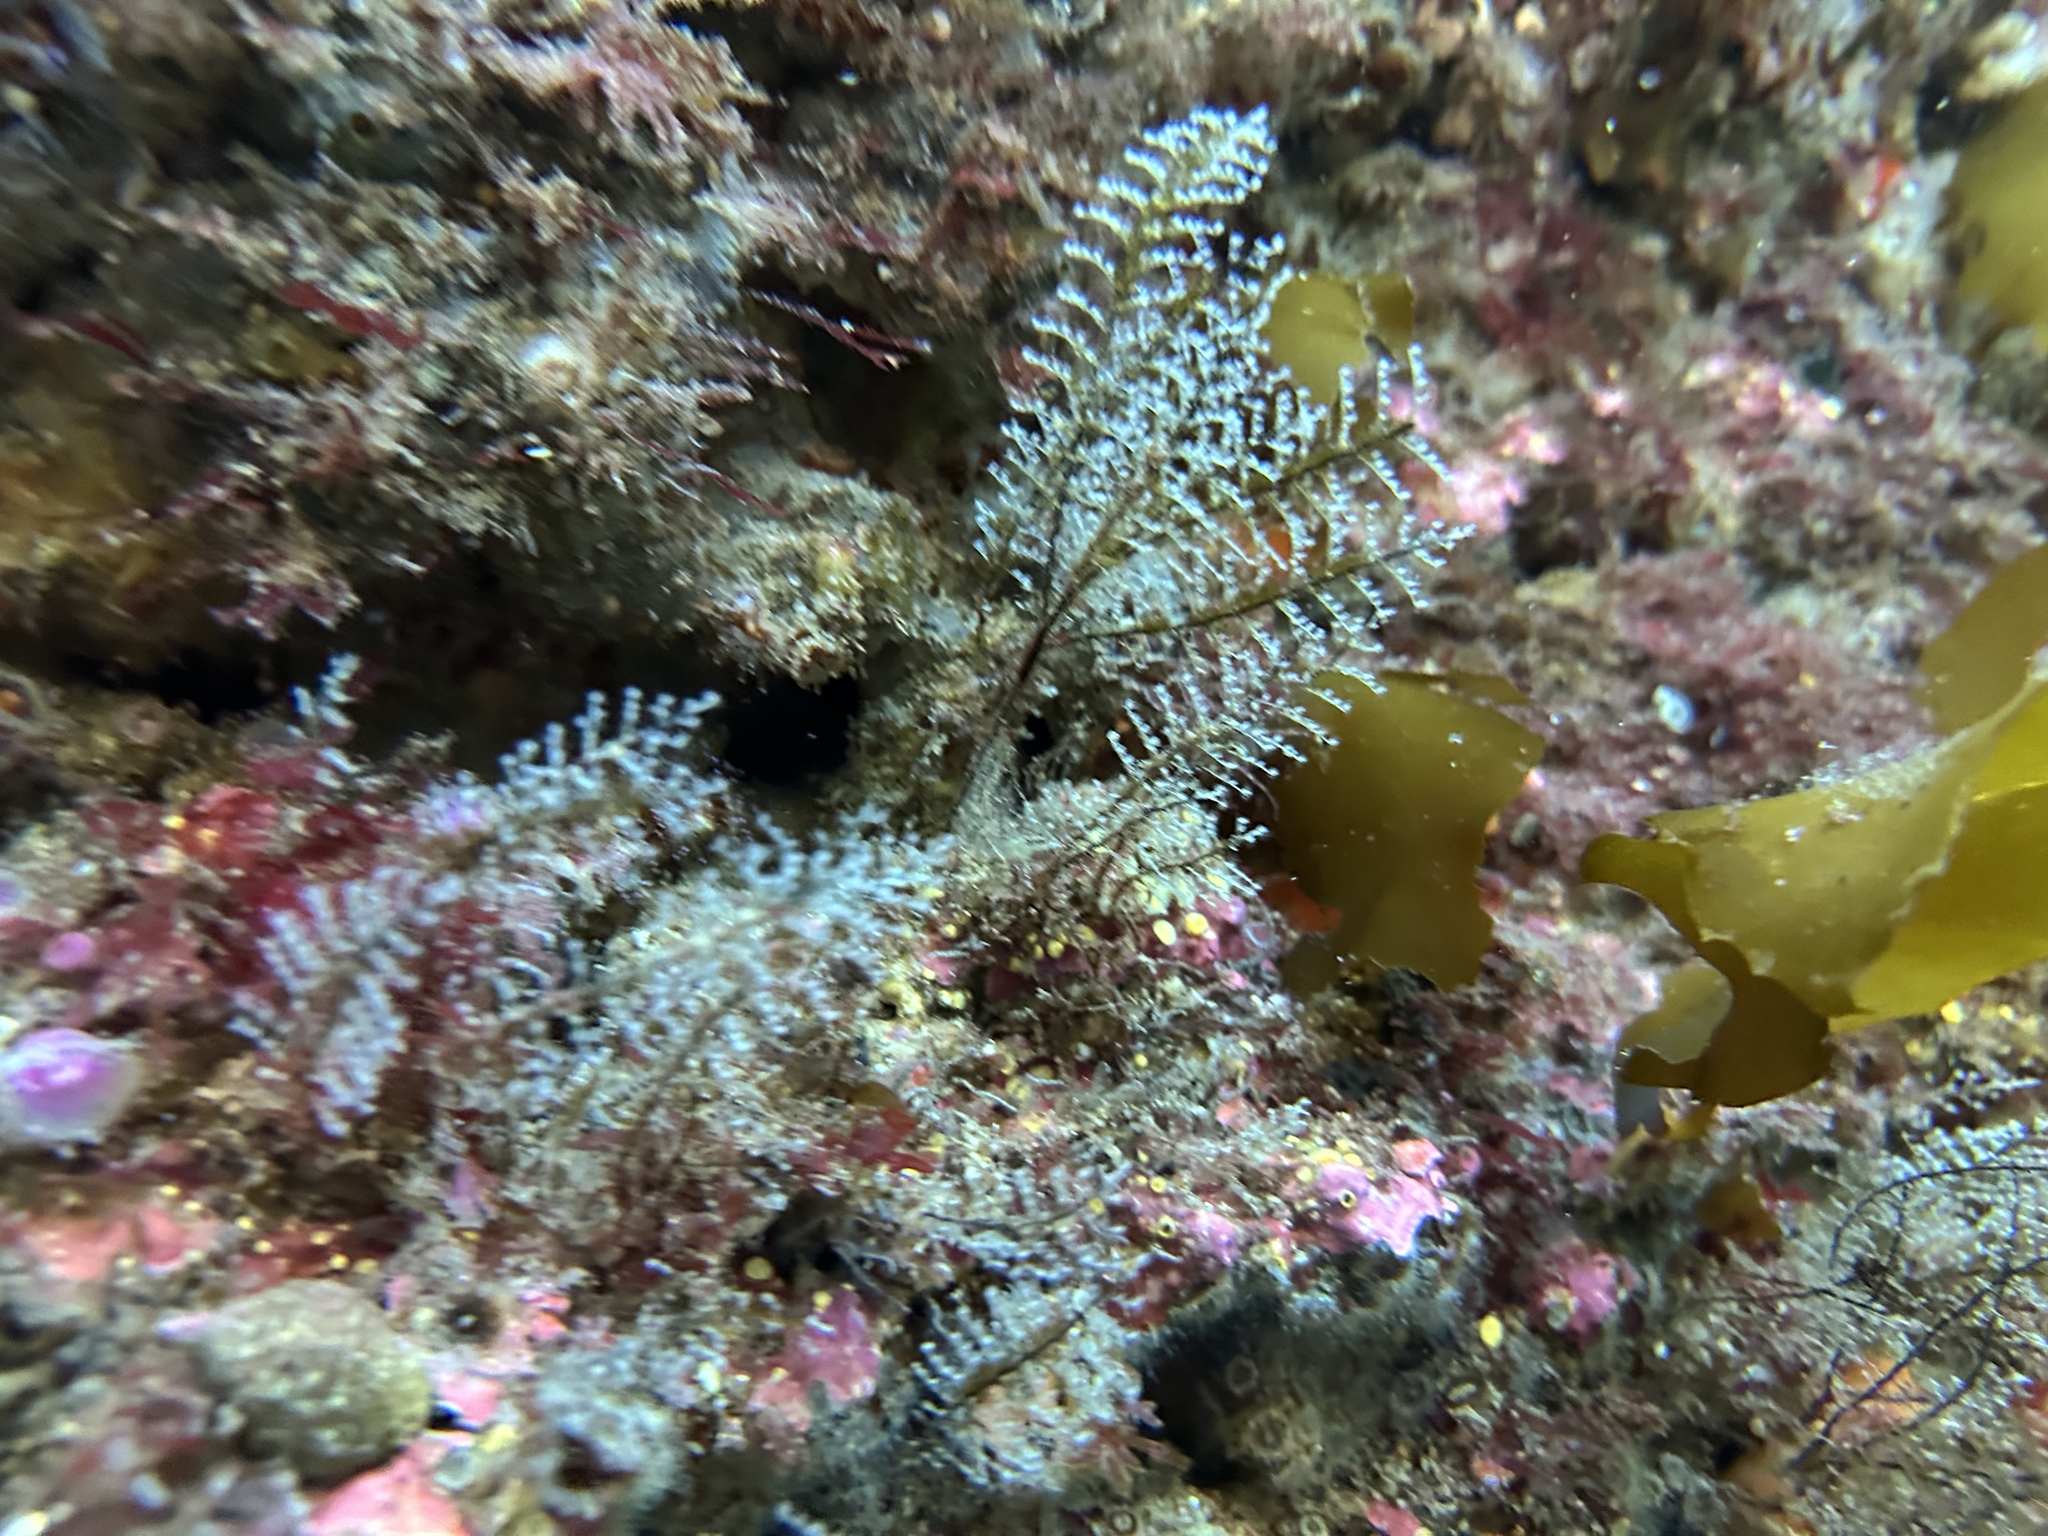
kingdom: Animalia
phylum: Cnidaria
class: Hydrozoa
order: Anthoathecata
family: Pennariidae
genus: Pennaria
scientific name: Pennaria disticha
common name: Feather hydroid
